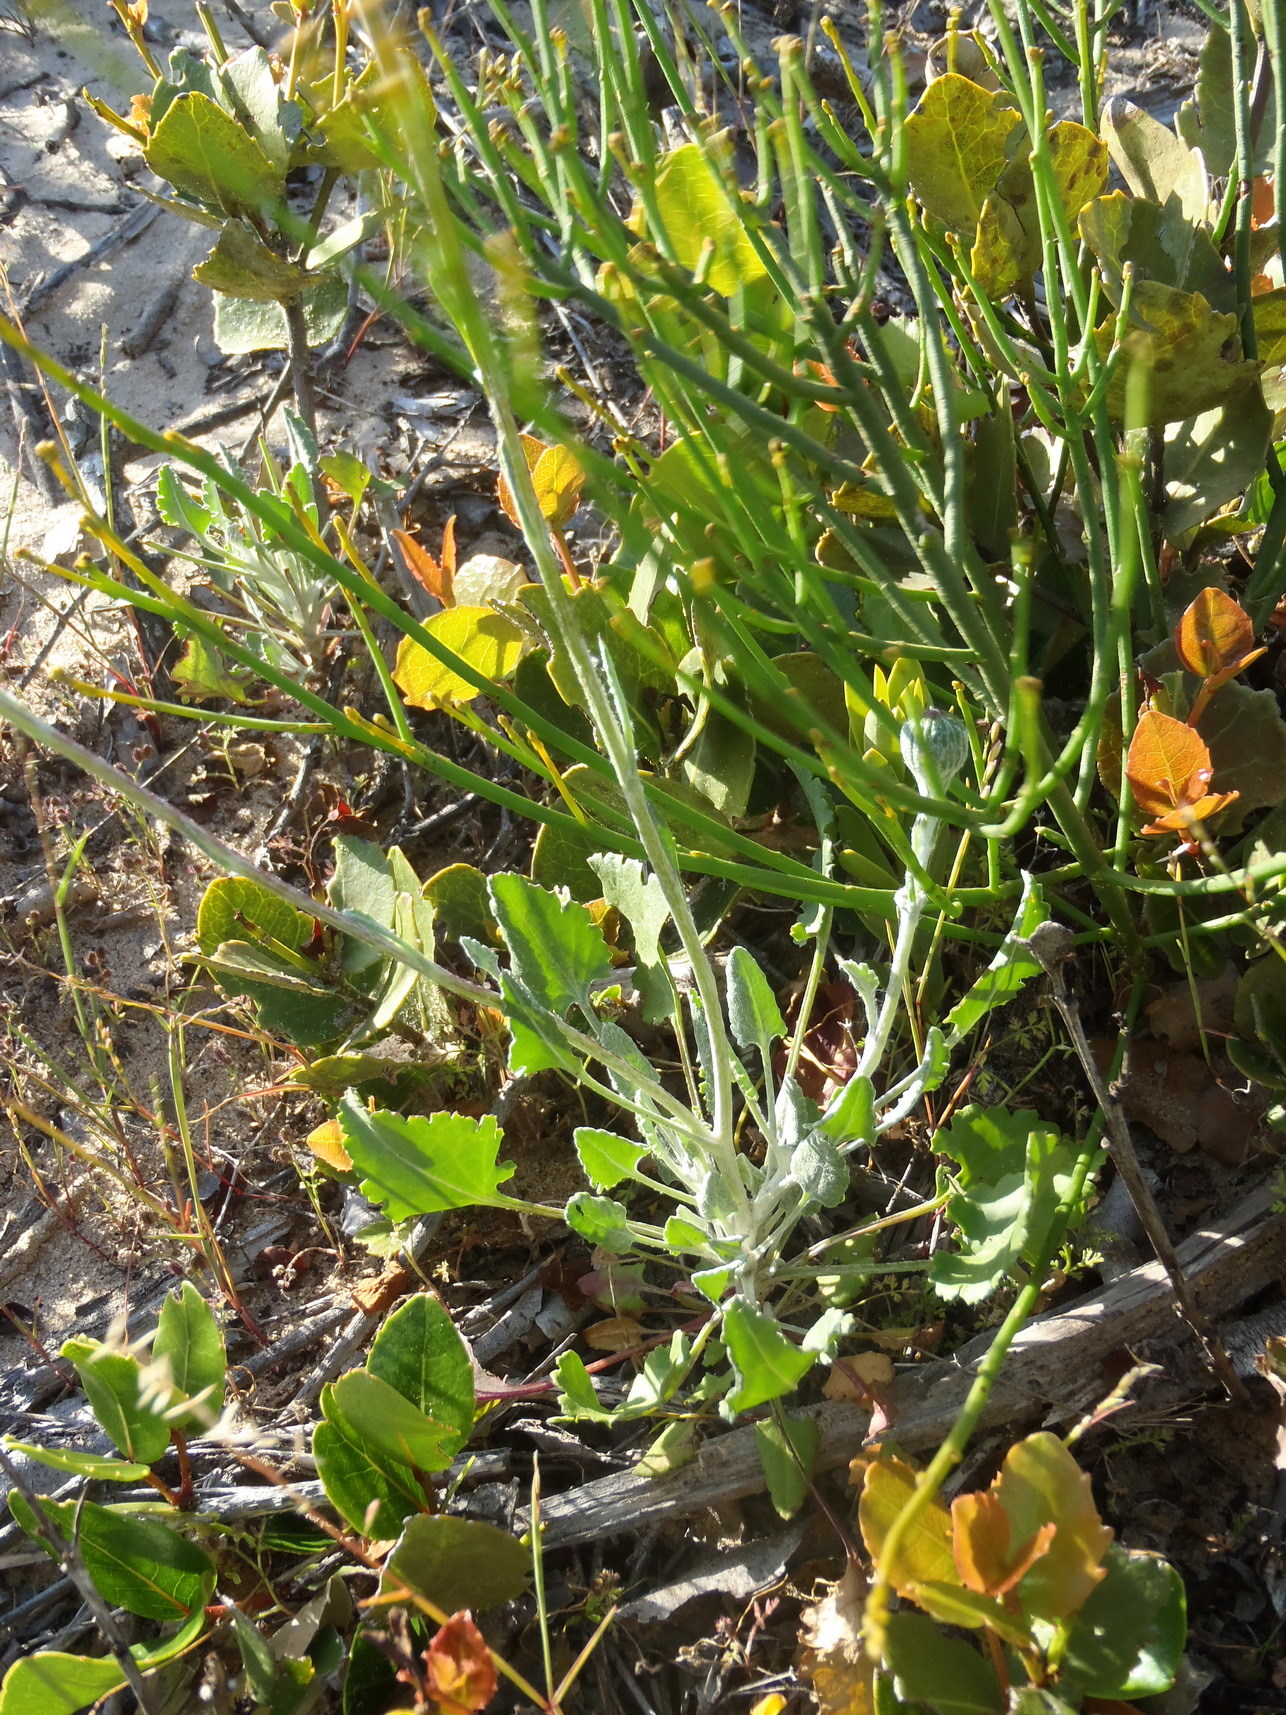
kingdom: Plantae
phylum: Tracheophyta
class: Magnoliopsida
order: Asterales
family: Asteraceae
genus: Bolandia
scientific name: Bolandia elongata
